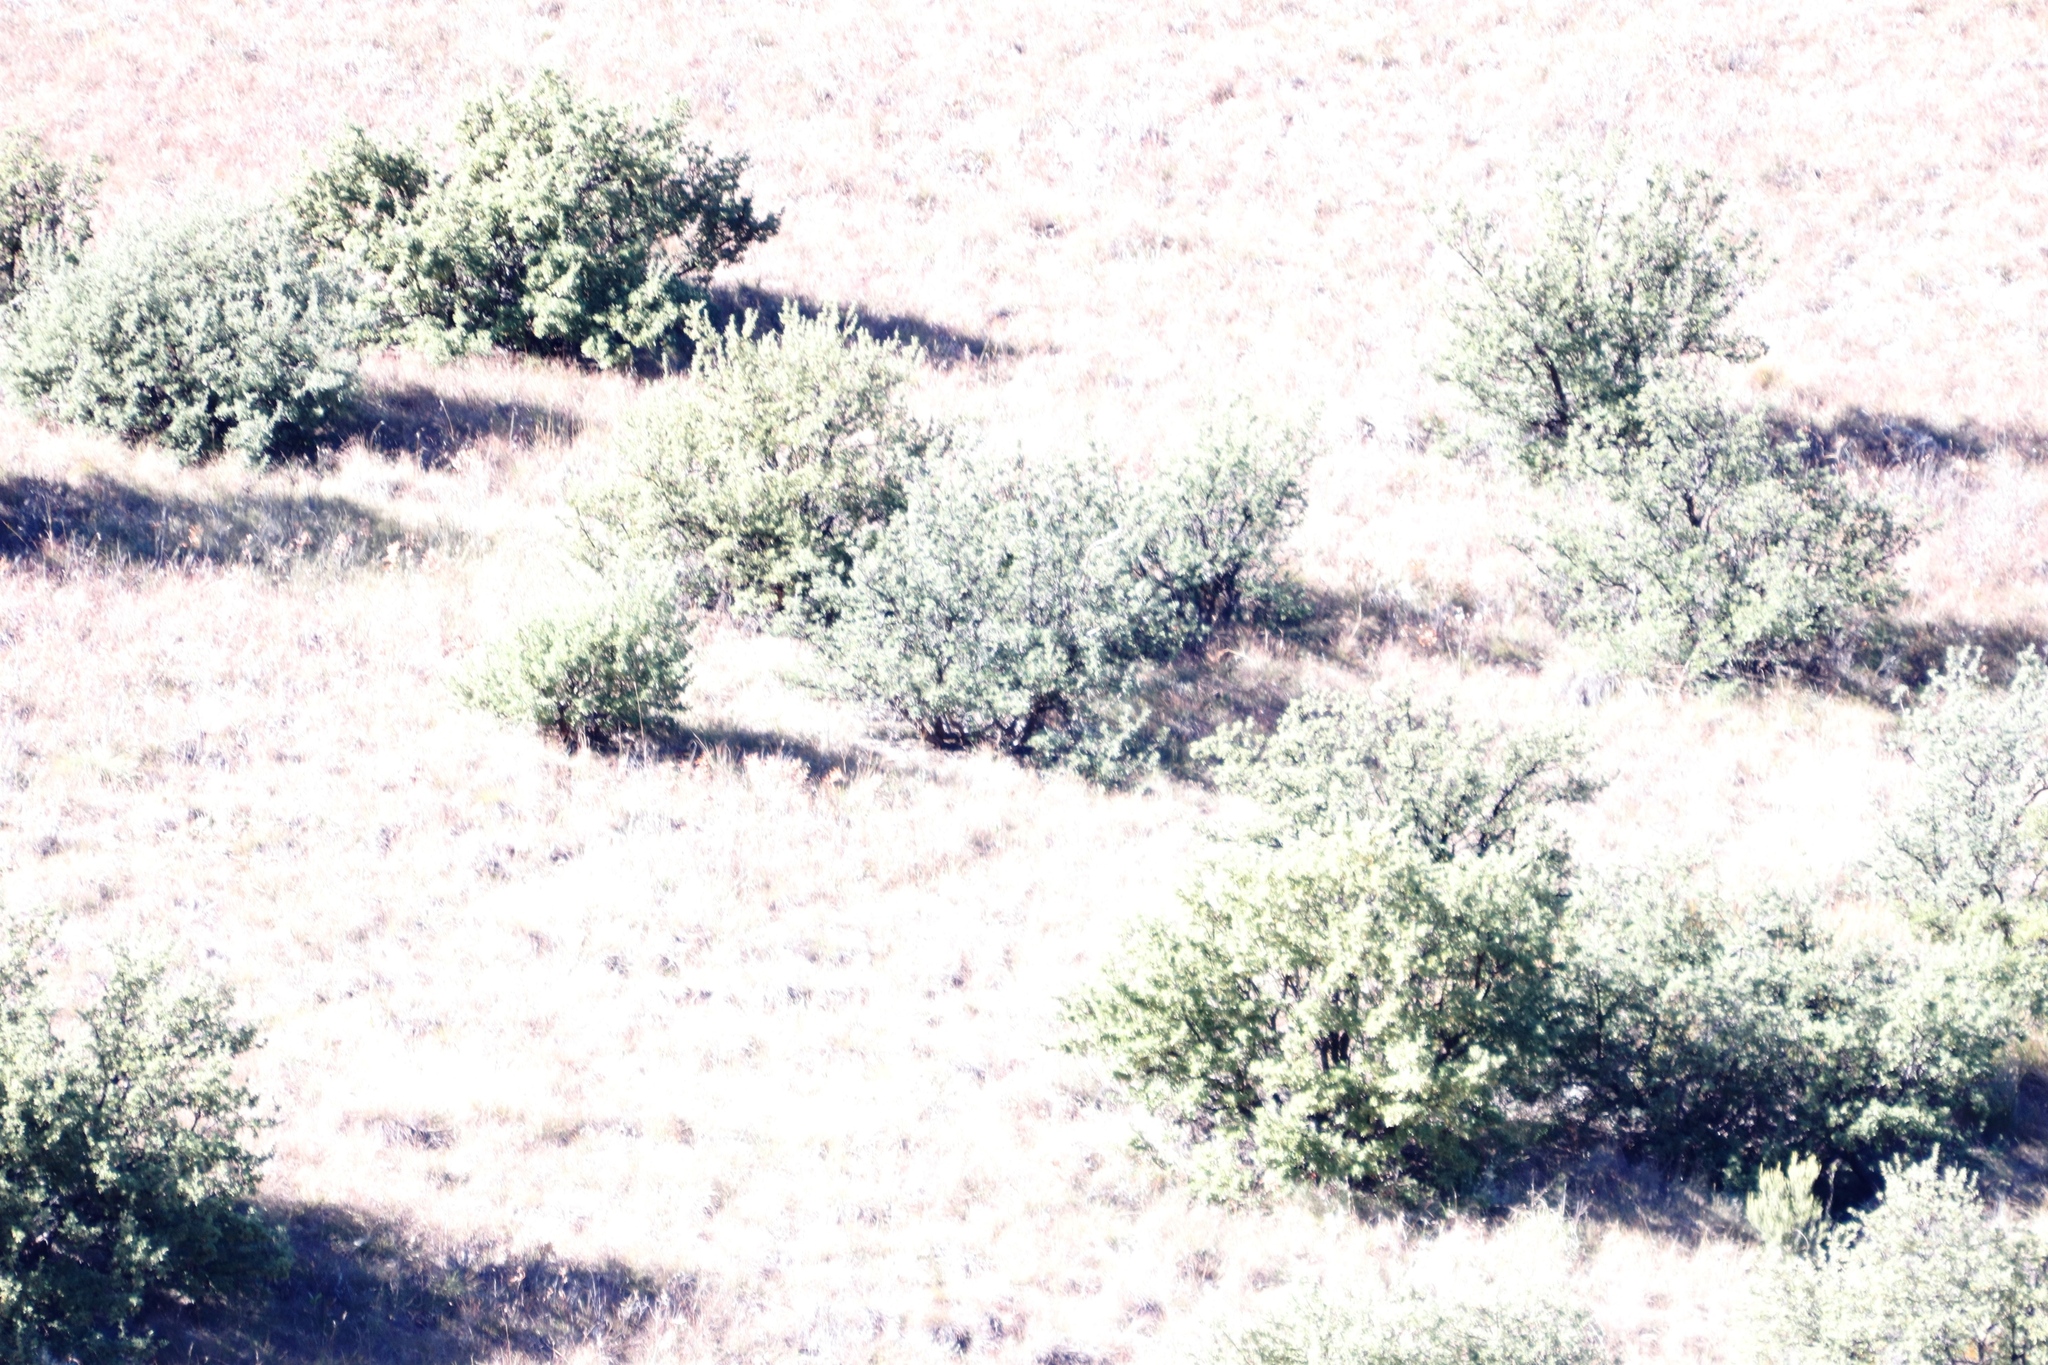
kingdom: Plantae
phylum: Tracheophyta
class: Magnoliopsida
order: Rosales
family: Rosaceae
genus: Leucosidea
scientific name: Leucosidea sericea
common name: Oldwood
